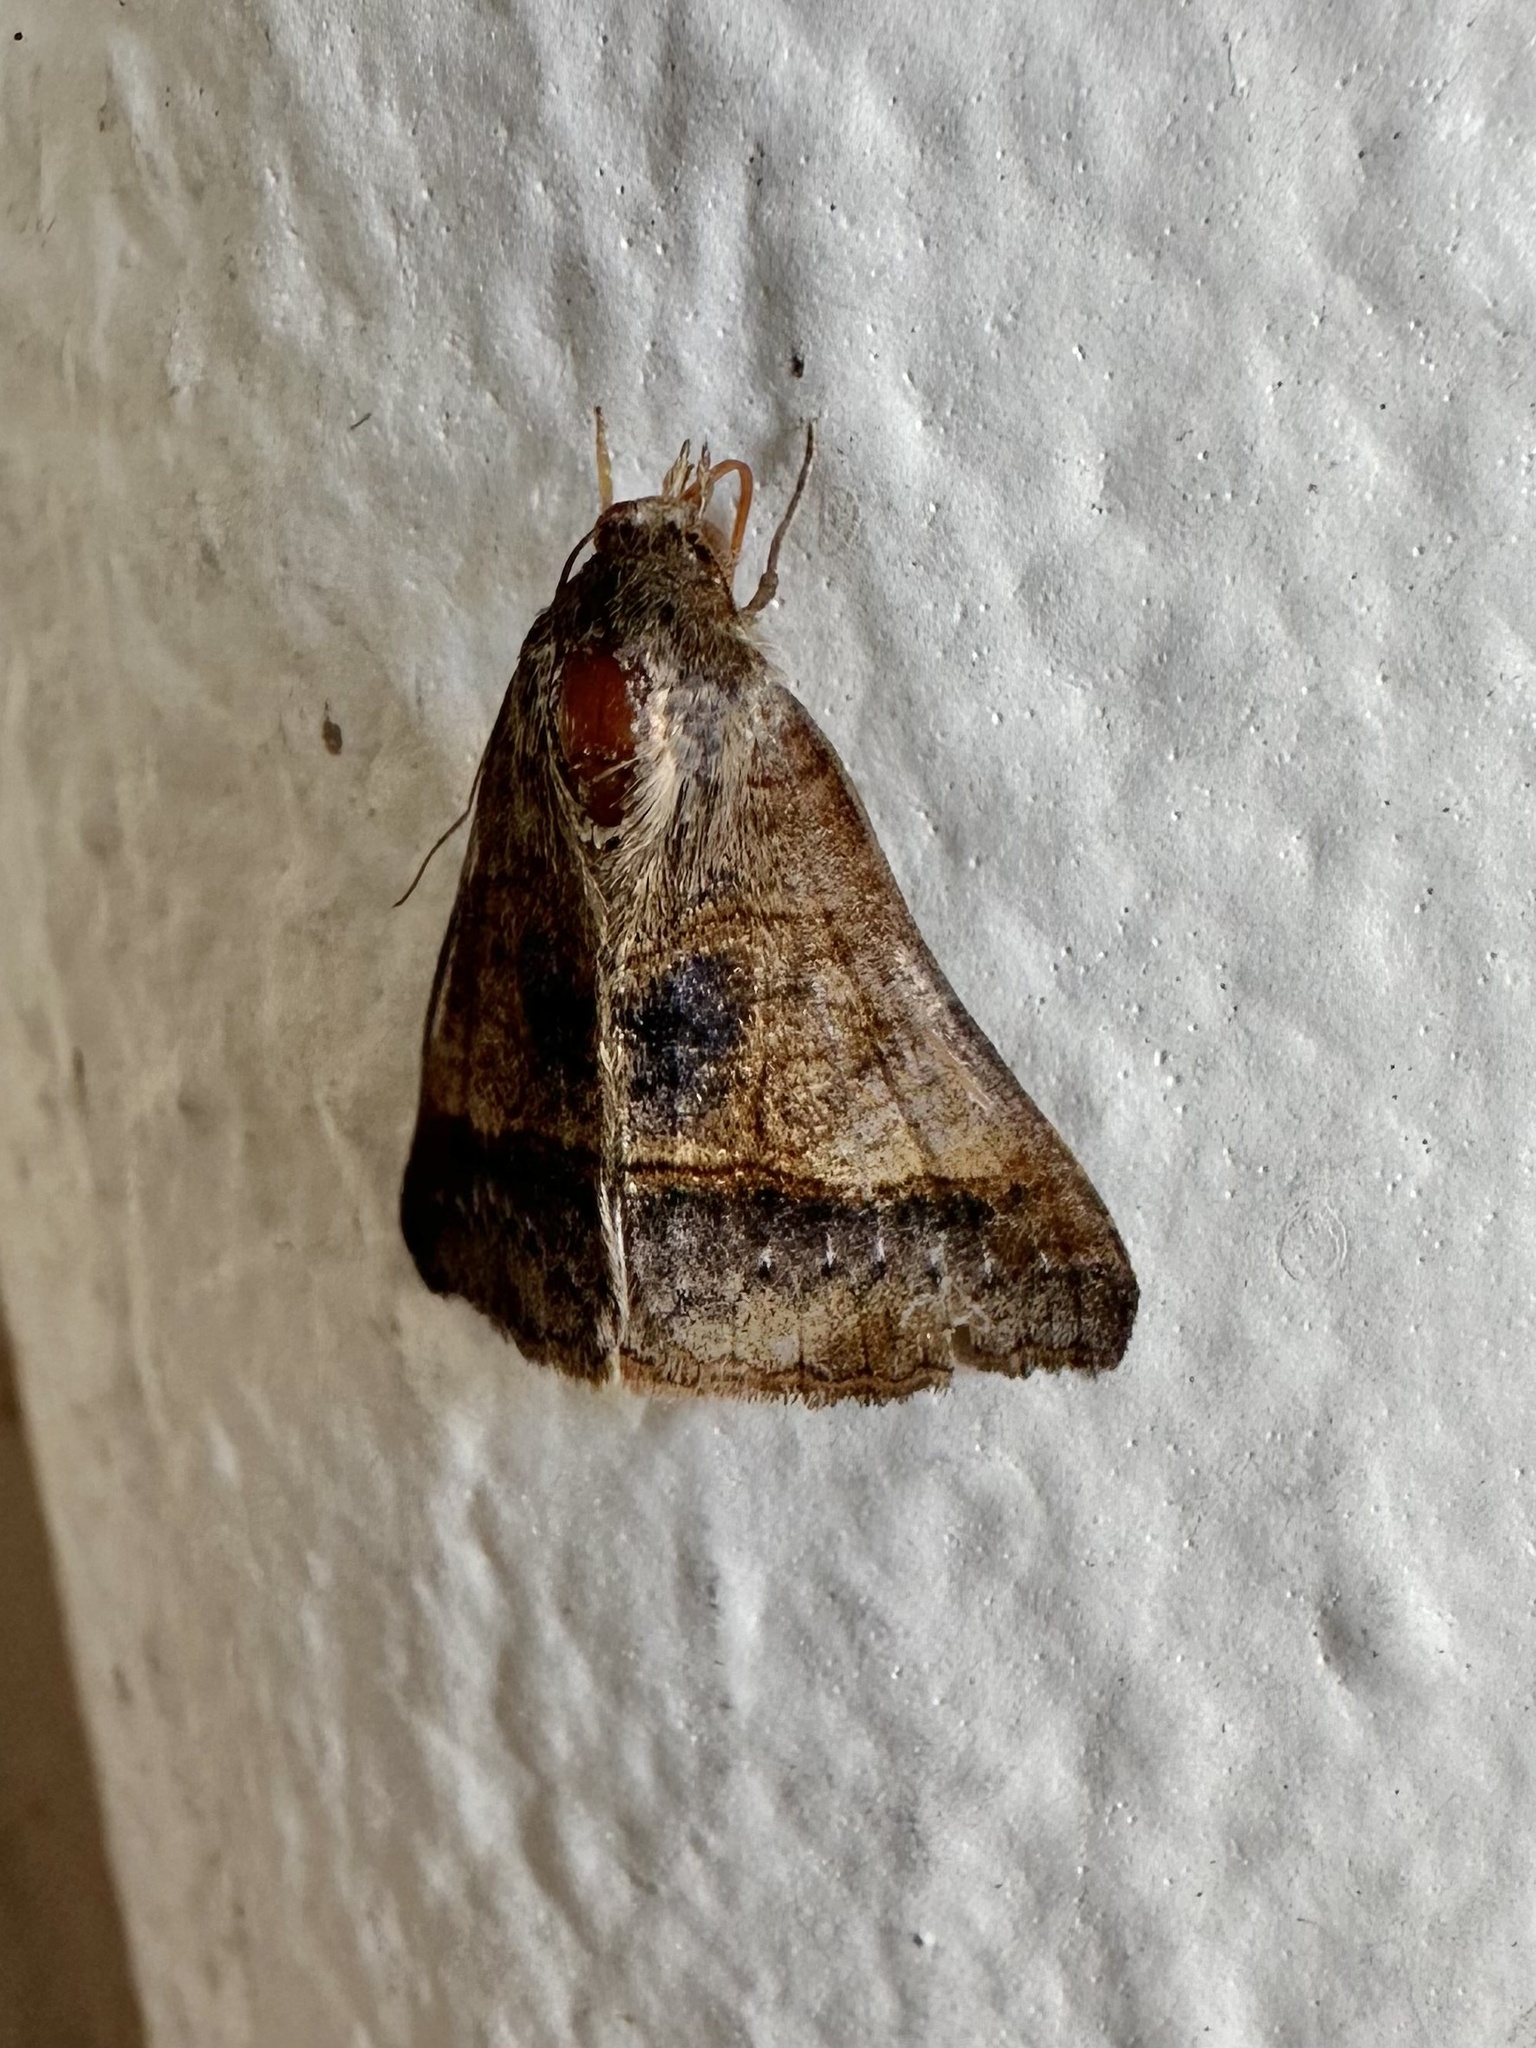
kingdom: Animalia
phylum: Arthropoda
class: Insecta
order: Lepidoptera
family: Erebidae
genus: Mocis
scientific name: Mocis latipes
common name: Striped grass looper
